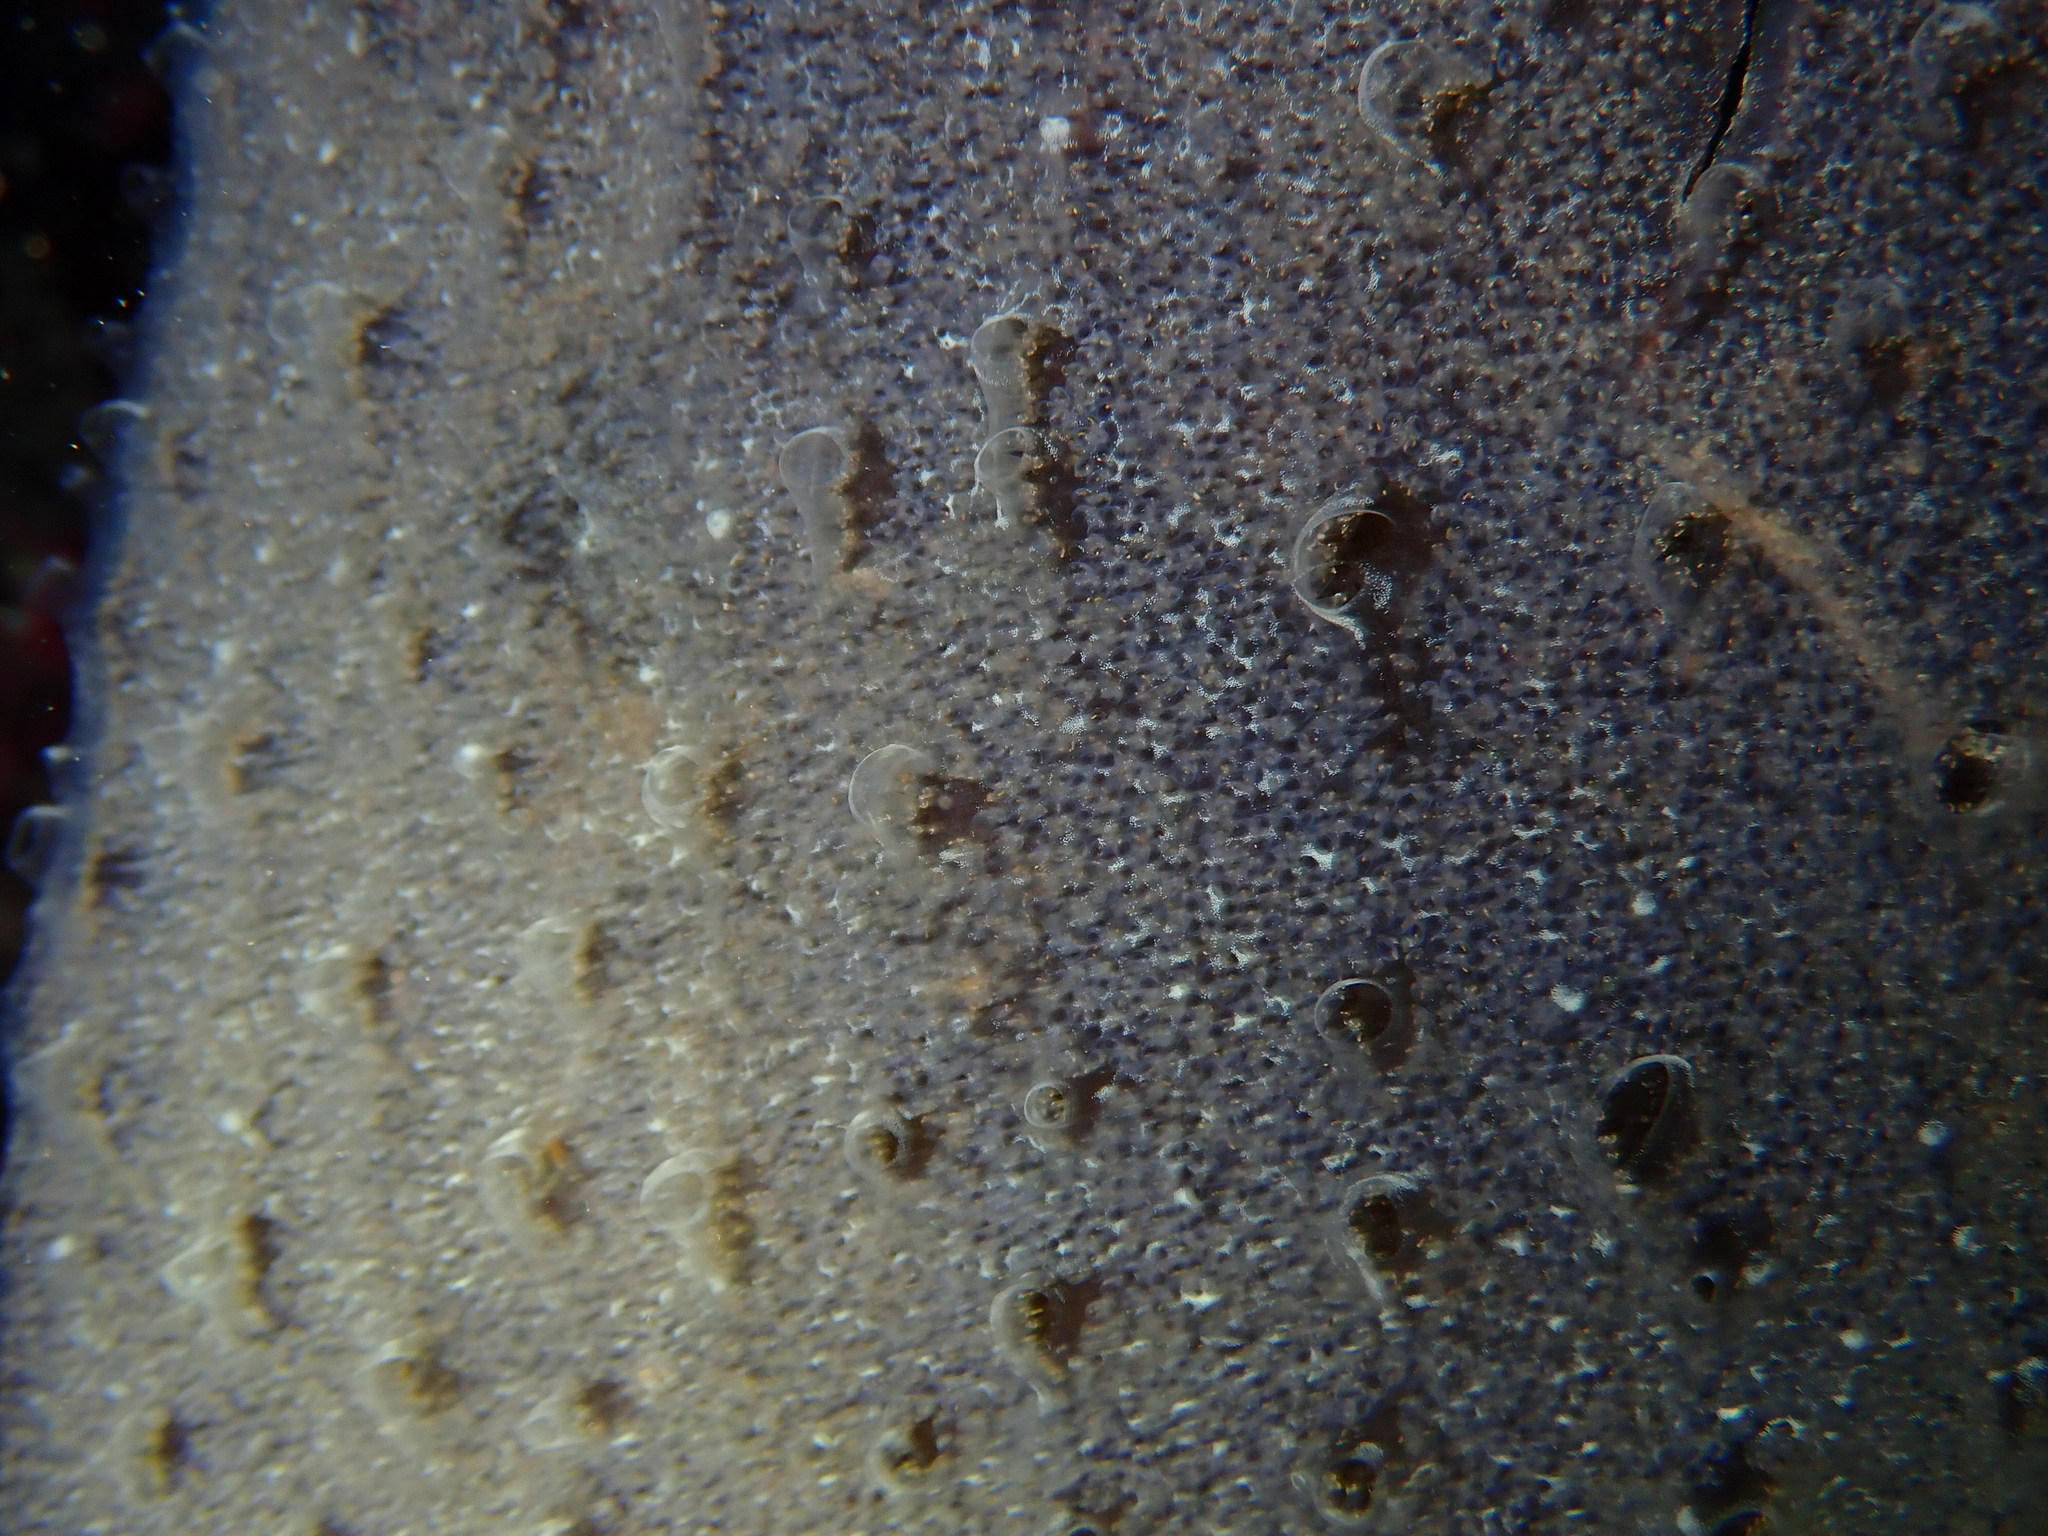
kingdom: Animalia
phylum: Chordata
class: Ascidiacea
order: Aplousobranchia
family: Didemnidae
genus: Diplosoma
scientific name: Diplosoma listerianum
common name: Compound sea squirt
